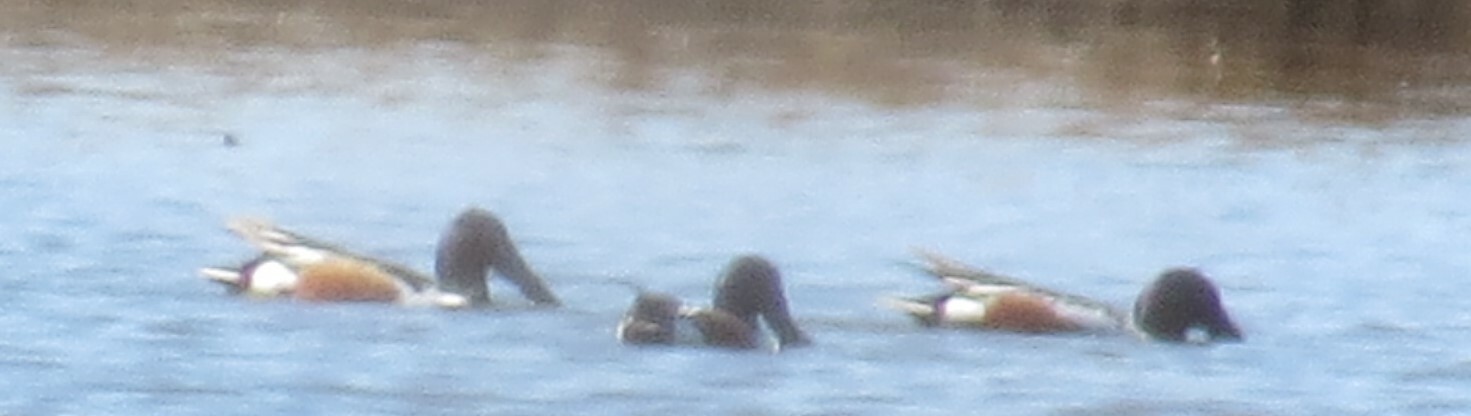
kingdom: Animalia
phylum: Chordata
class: Aves
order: Anseriformes
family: Anatidae
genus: Spatula
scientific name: Spatula clypeata
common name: Northern shoveler
